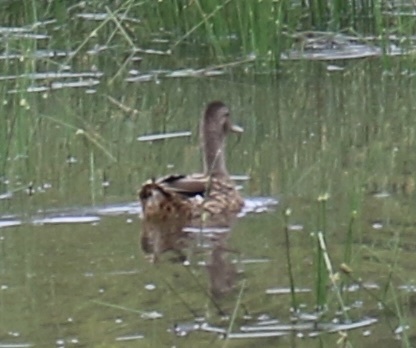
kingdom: Animalia
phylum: Chordata
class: Aves
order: Anseriformes
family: Anatidae
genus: Anas
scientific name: Anas wyvilliana
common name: Hawaiian duck
